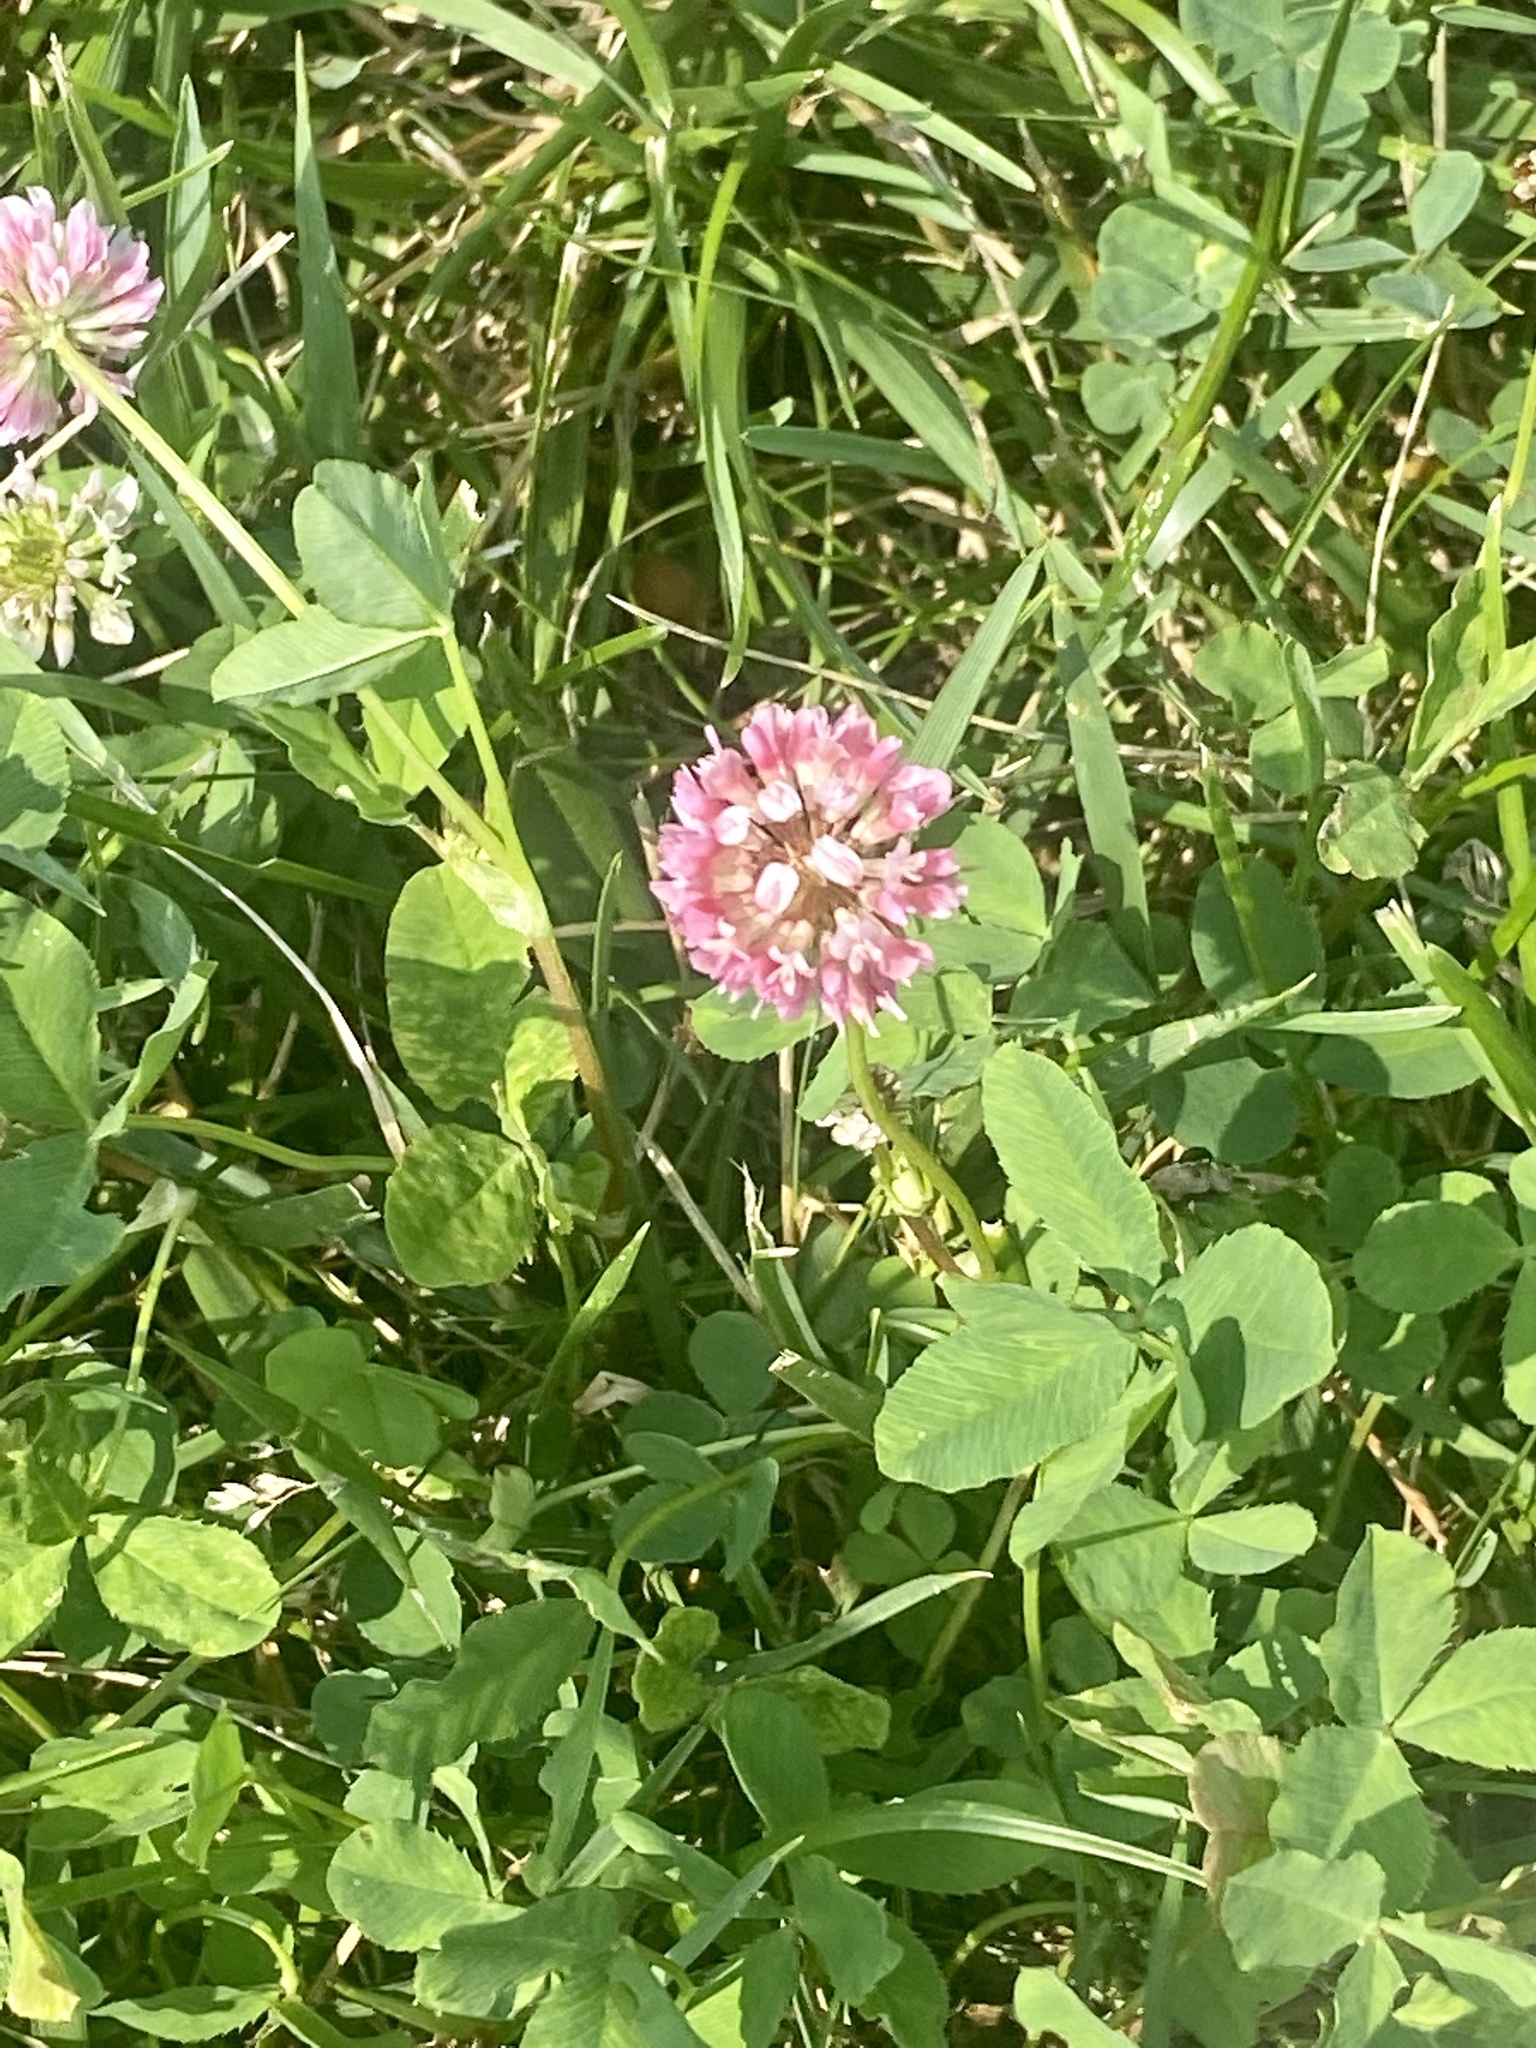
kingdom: Plantae
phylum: Tracheophyta
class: Magnoliopsida
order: Fabales
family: Fabaceae
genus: Trifolium
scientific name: Trifolium hybridum
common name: Alsike clover
